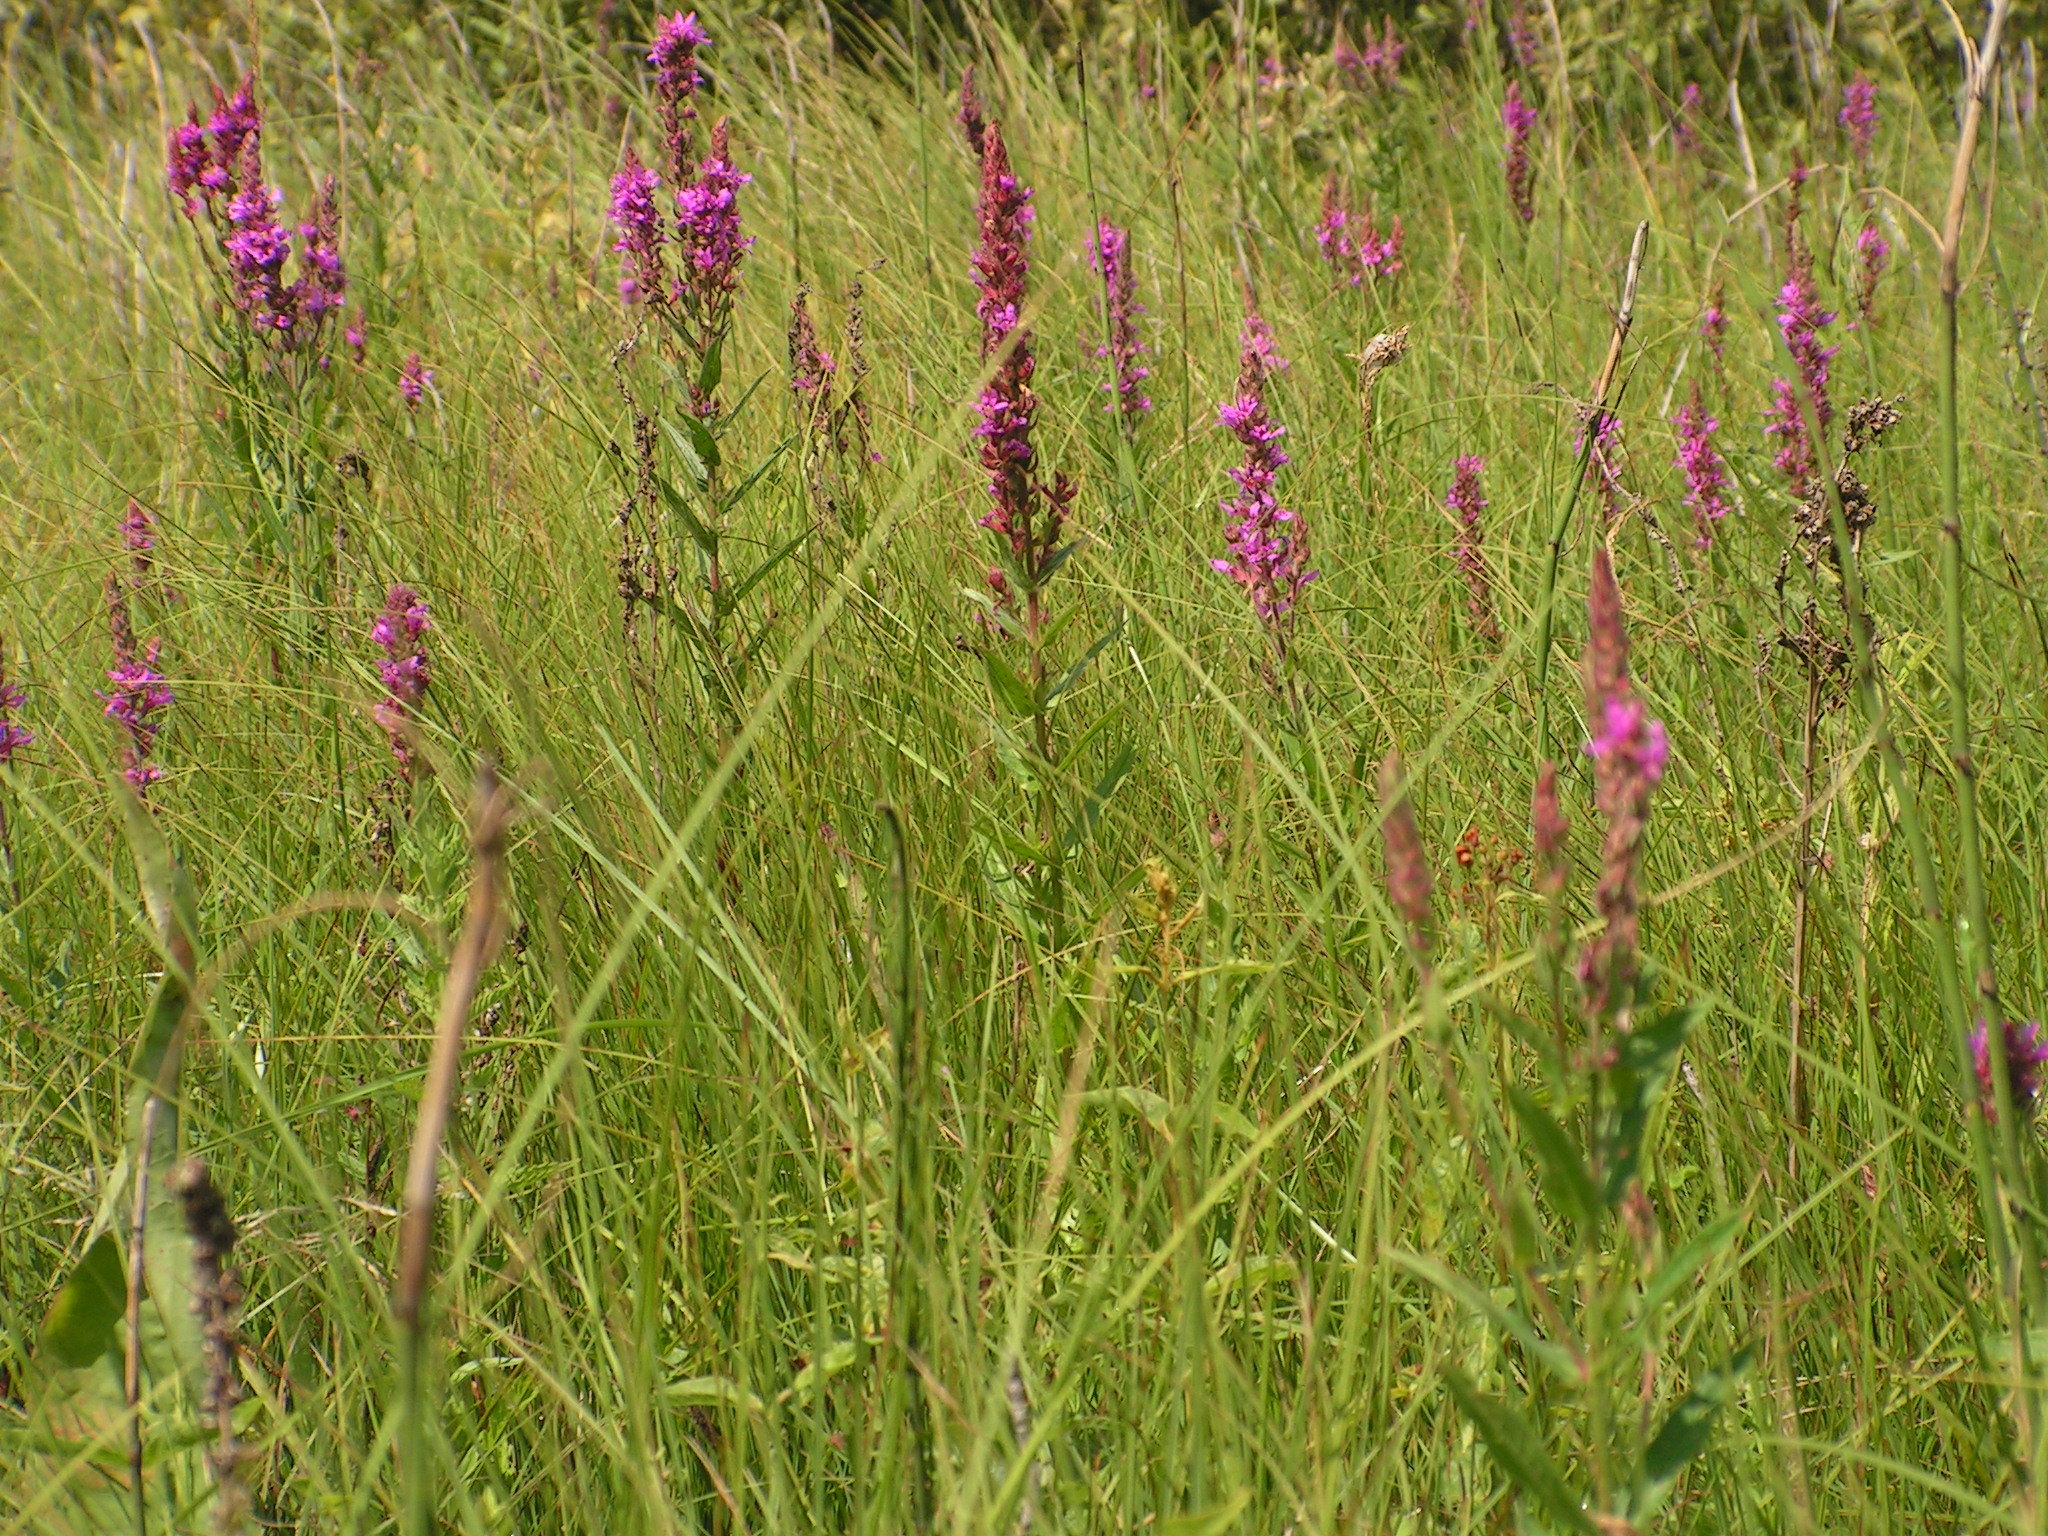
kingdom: Plantae
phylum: Tracheophyta
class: Magnoliopsida
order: Myrtales
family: Lythraceae
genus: Lythrum
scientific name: Lythrum salicaria
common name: Purple loosestrife
